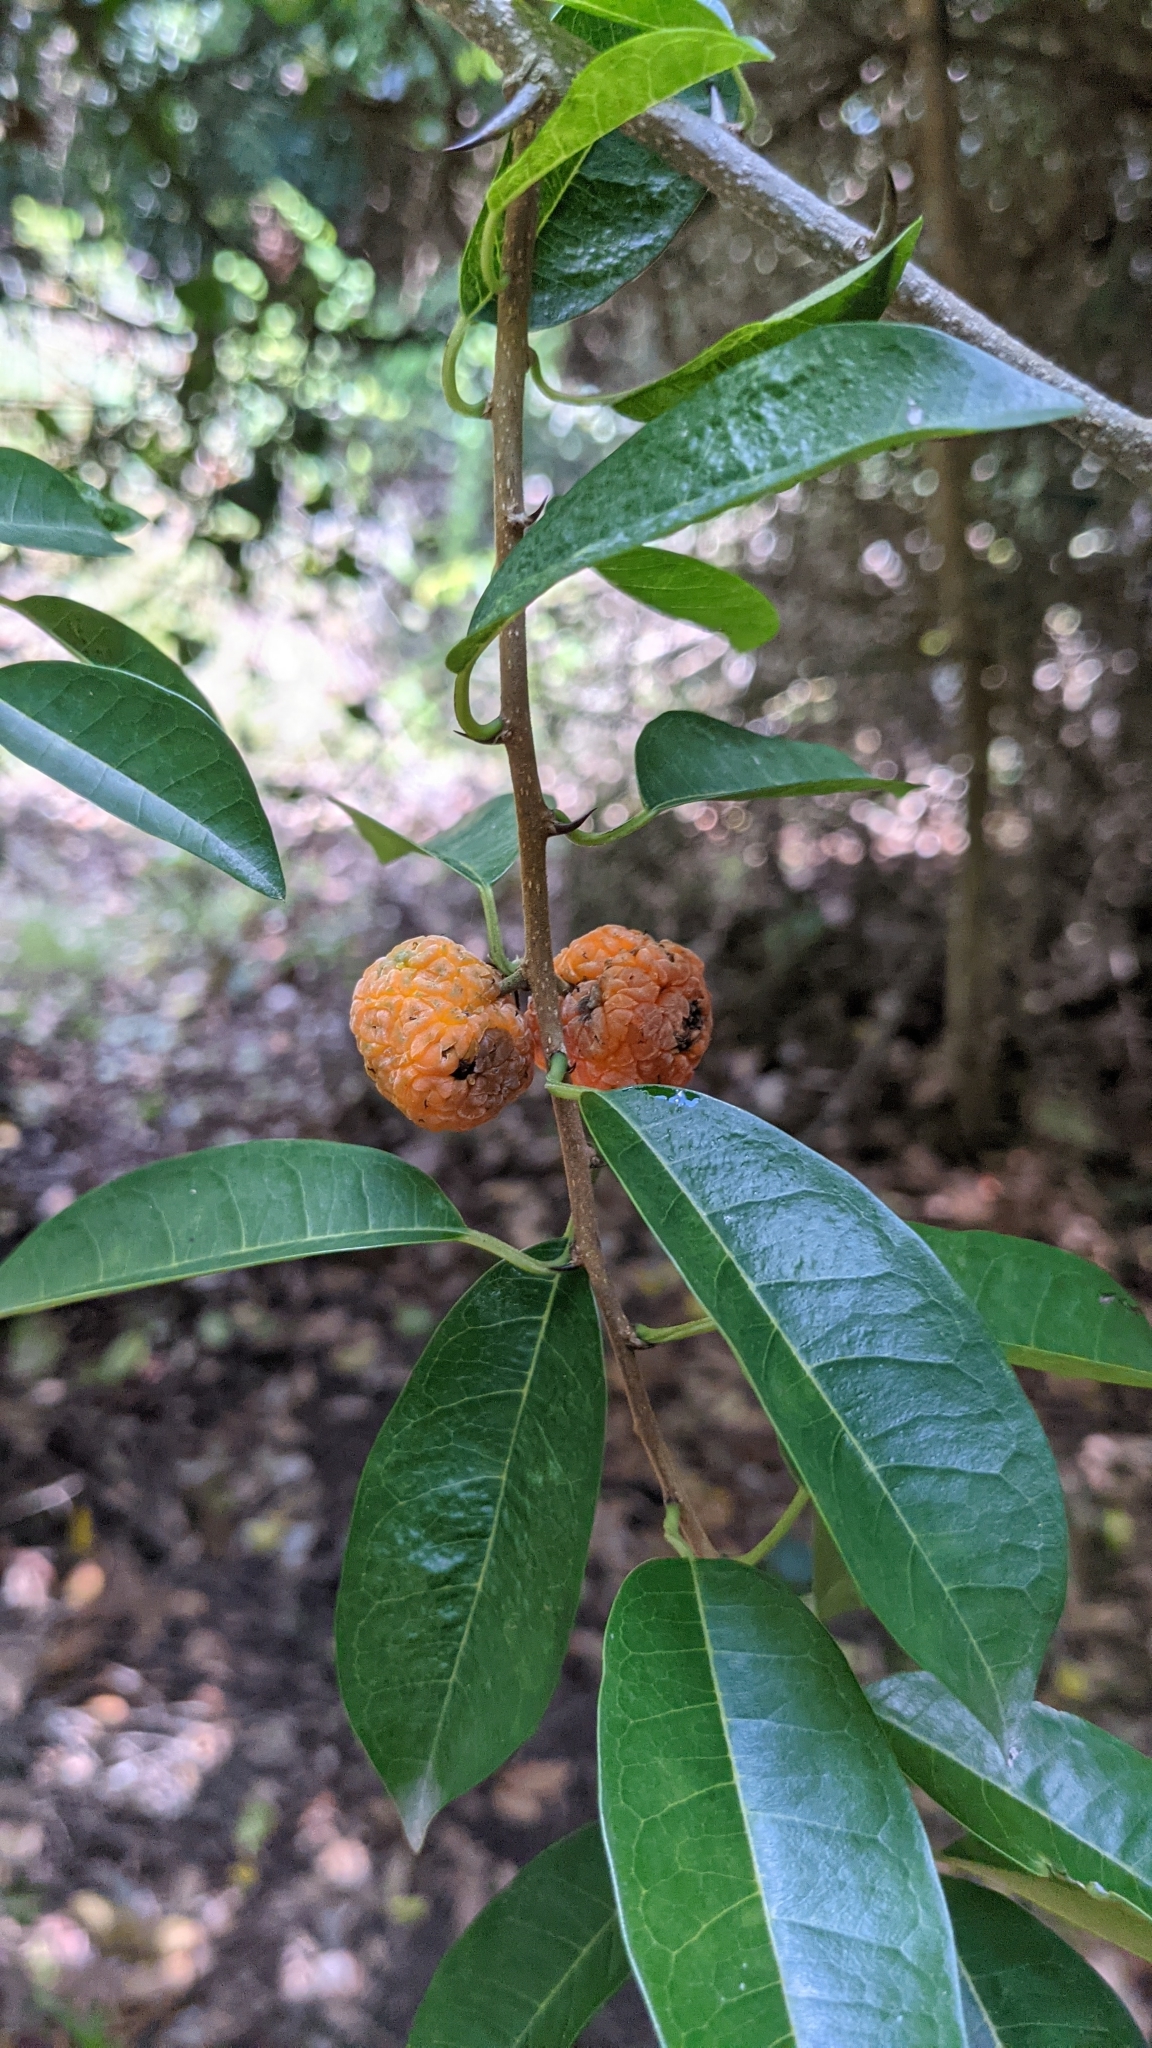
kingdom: Plantae
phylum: Tracheophyta
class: Magnoliopsida
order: Rosales
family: Moraceae
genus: Maclura
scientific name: Maclura cochinchinensis
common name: Cockspurthorn
